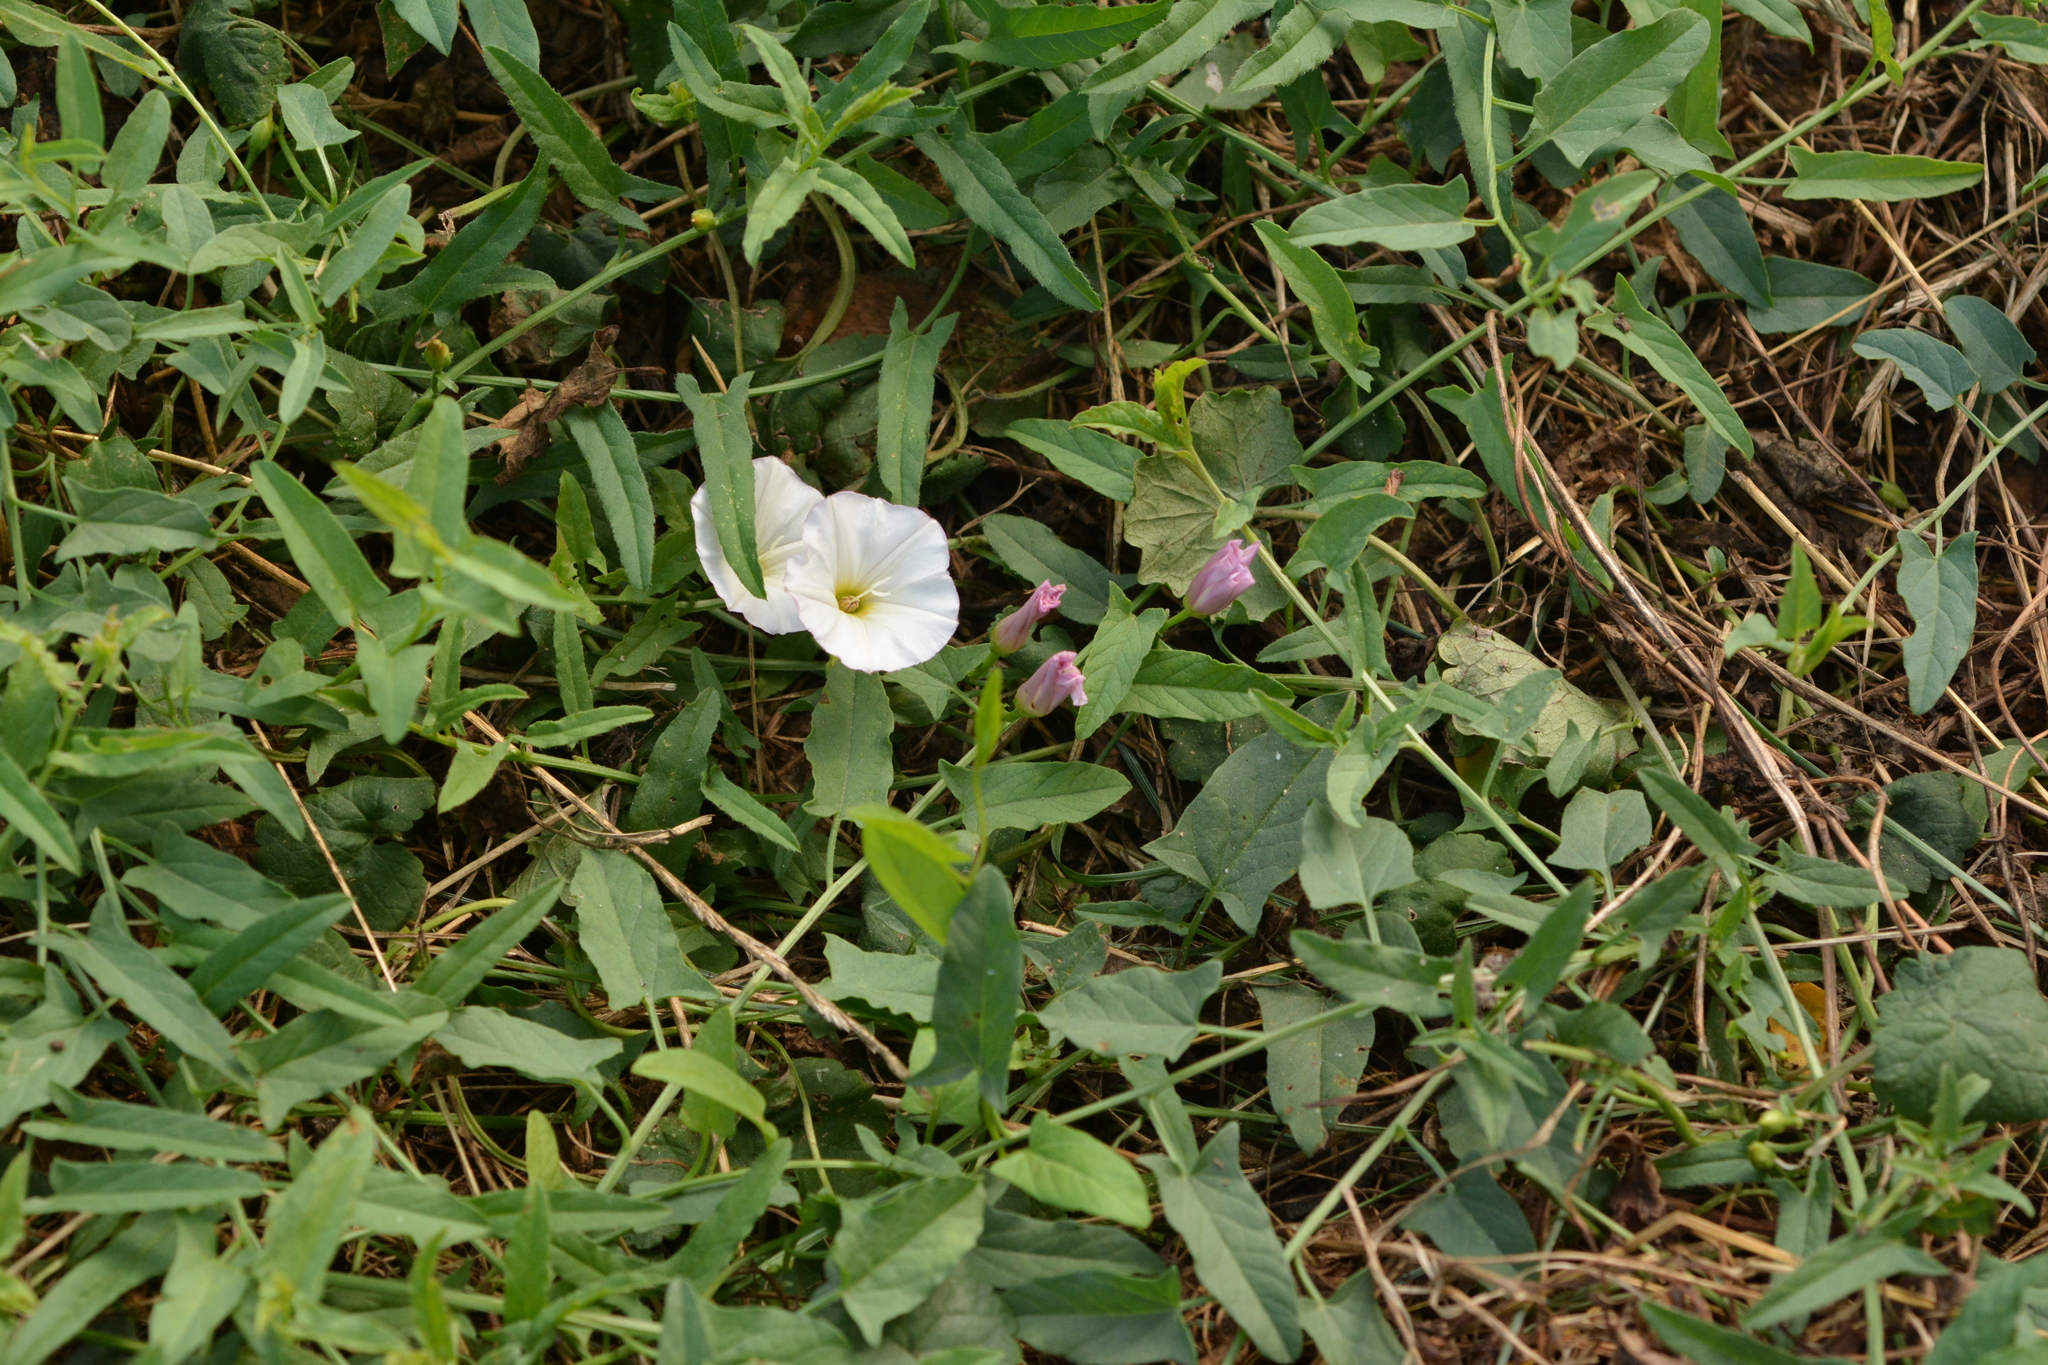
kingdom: Plantae
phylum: Tracheophyta
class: Magnoliopsida
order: Solanales
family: Convolvulaceae
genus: Convolvulus
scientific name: Convolvulus arvensis
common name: Field bindweed
